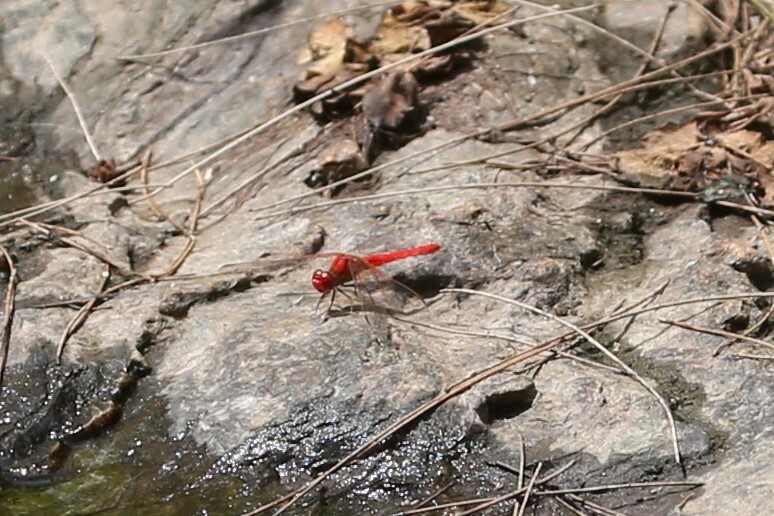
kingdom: Animalia
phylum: Arthropoda
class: Insecta
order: Odonata
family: Libellulidae
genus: Diplacodes
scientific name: Diplacodes haematodes
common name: Scarlet percher
